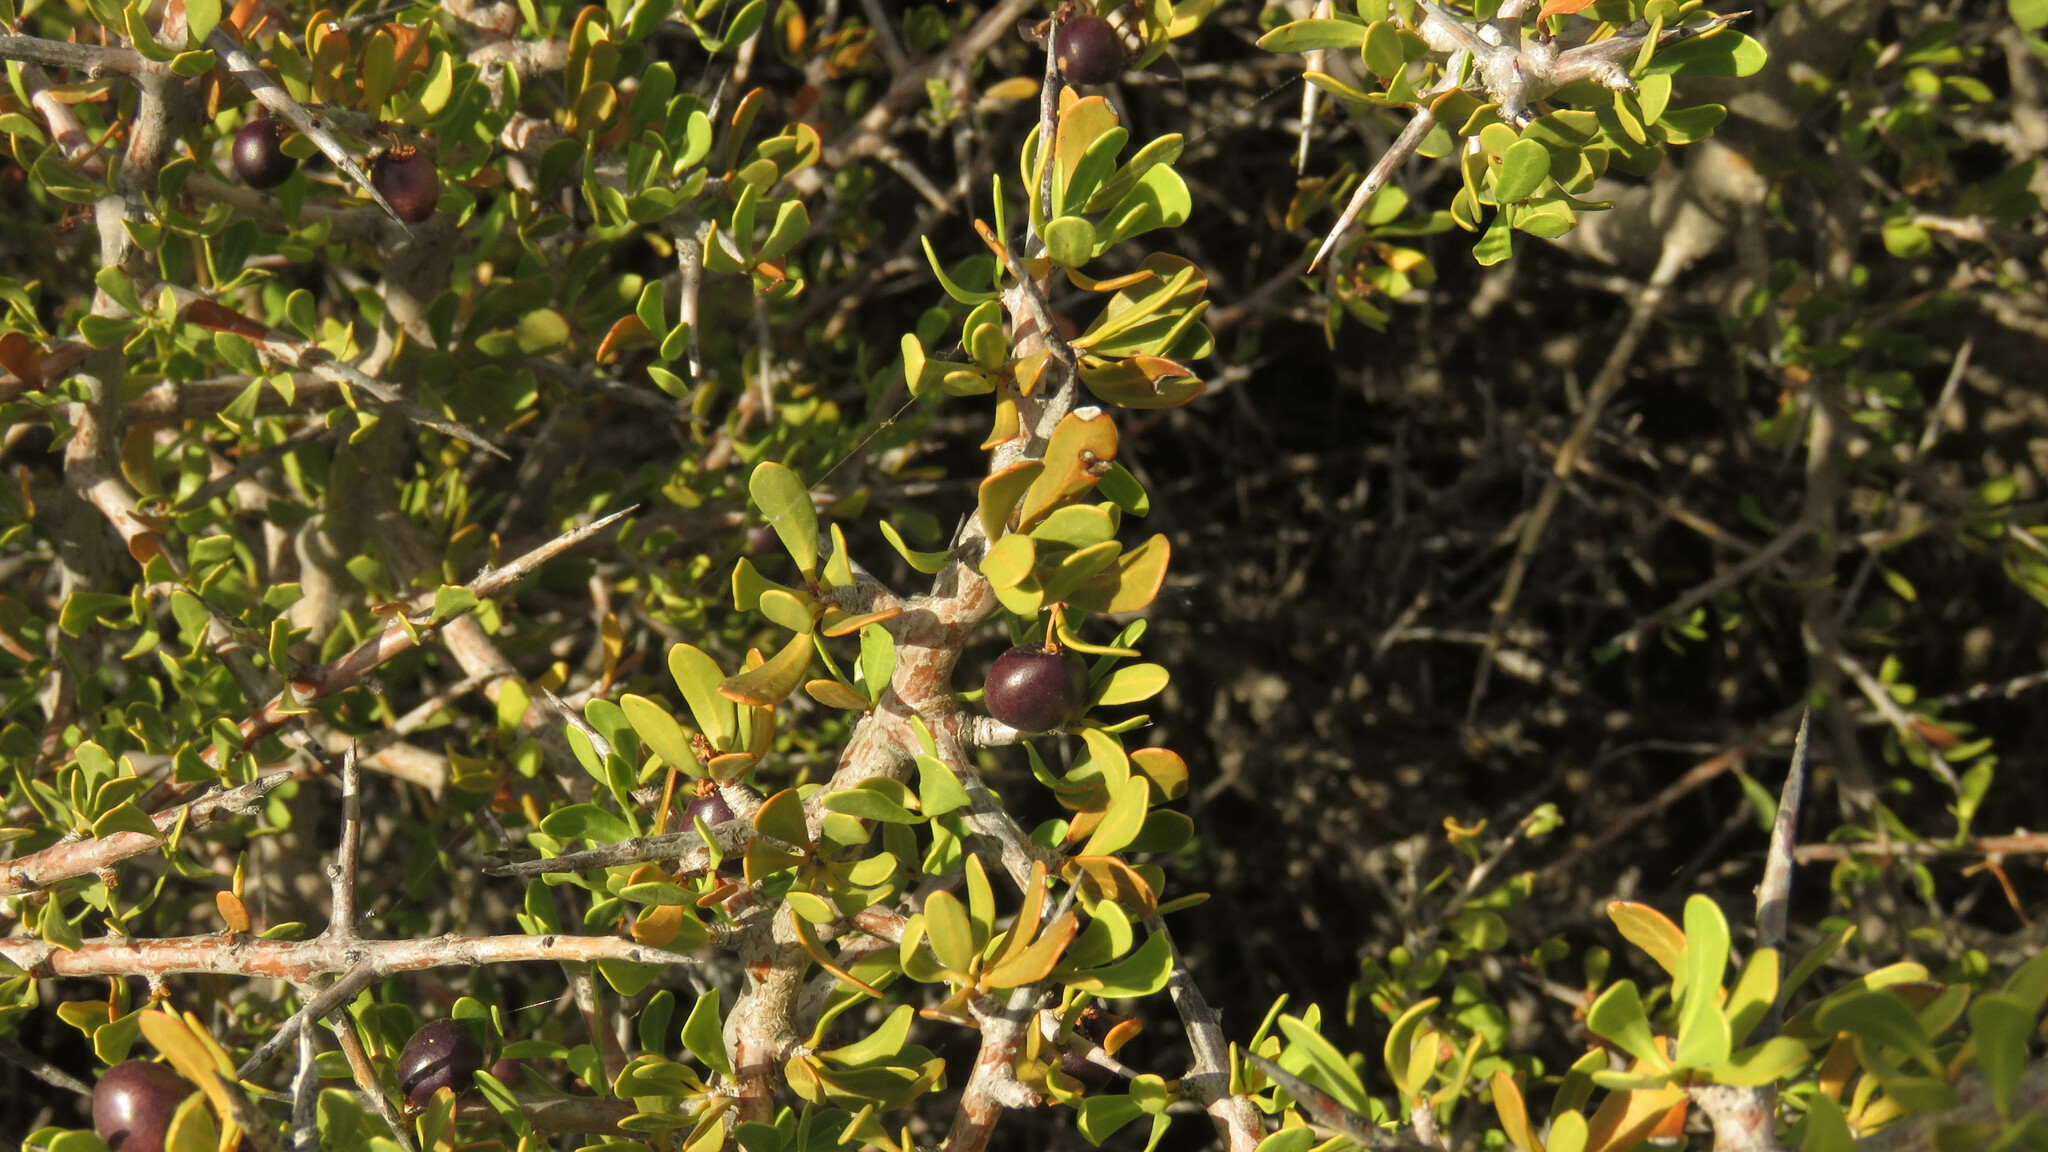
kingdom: Plantae
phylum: Tracheophyta
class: Magnoliopsida
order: Sapindales
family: Anacardiaceae
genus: Schinus
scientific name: Schinus johnstonii
